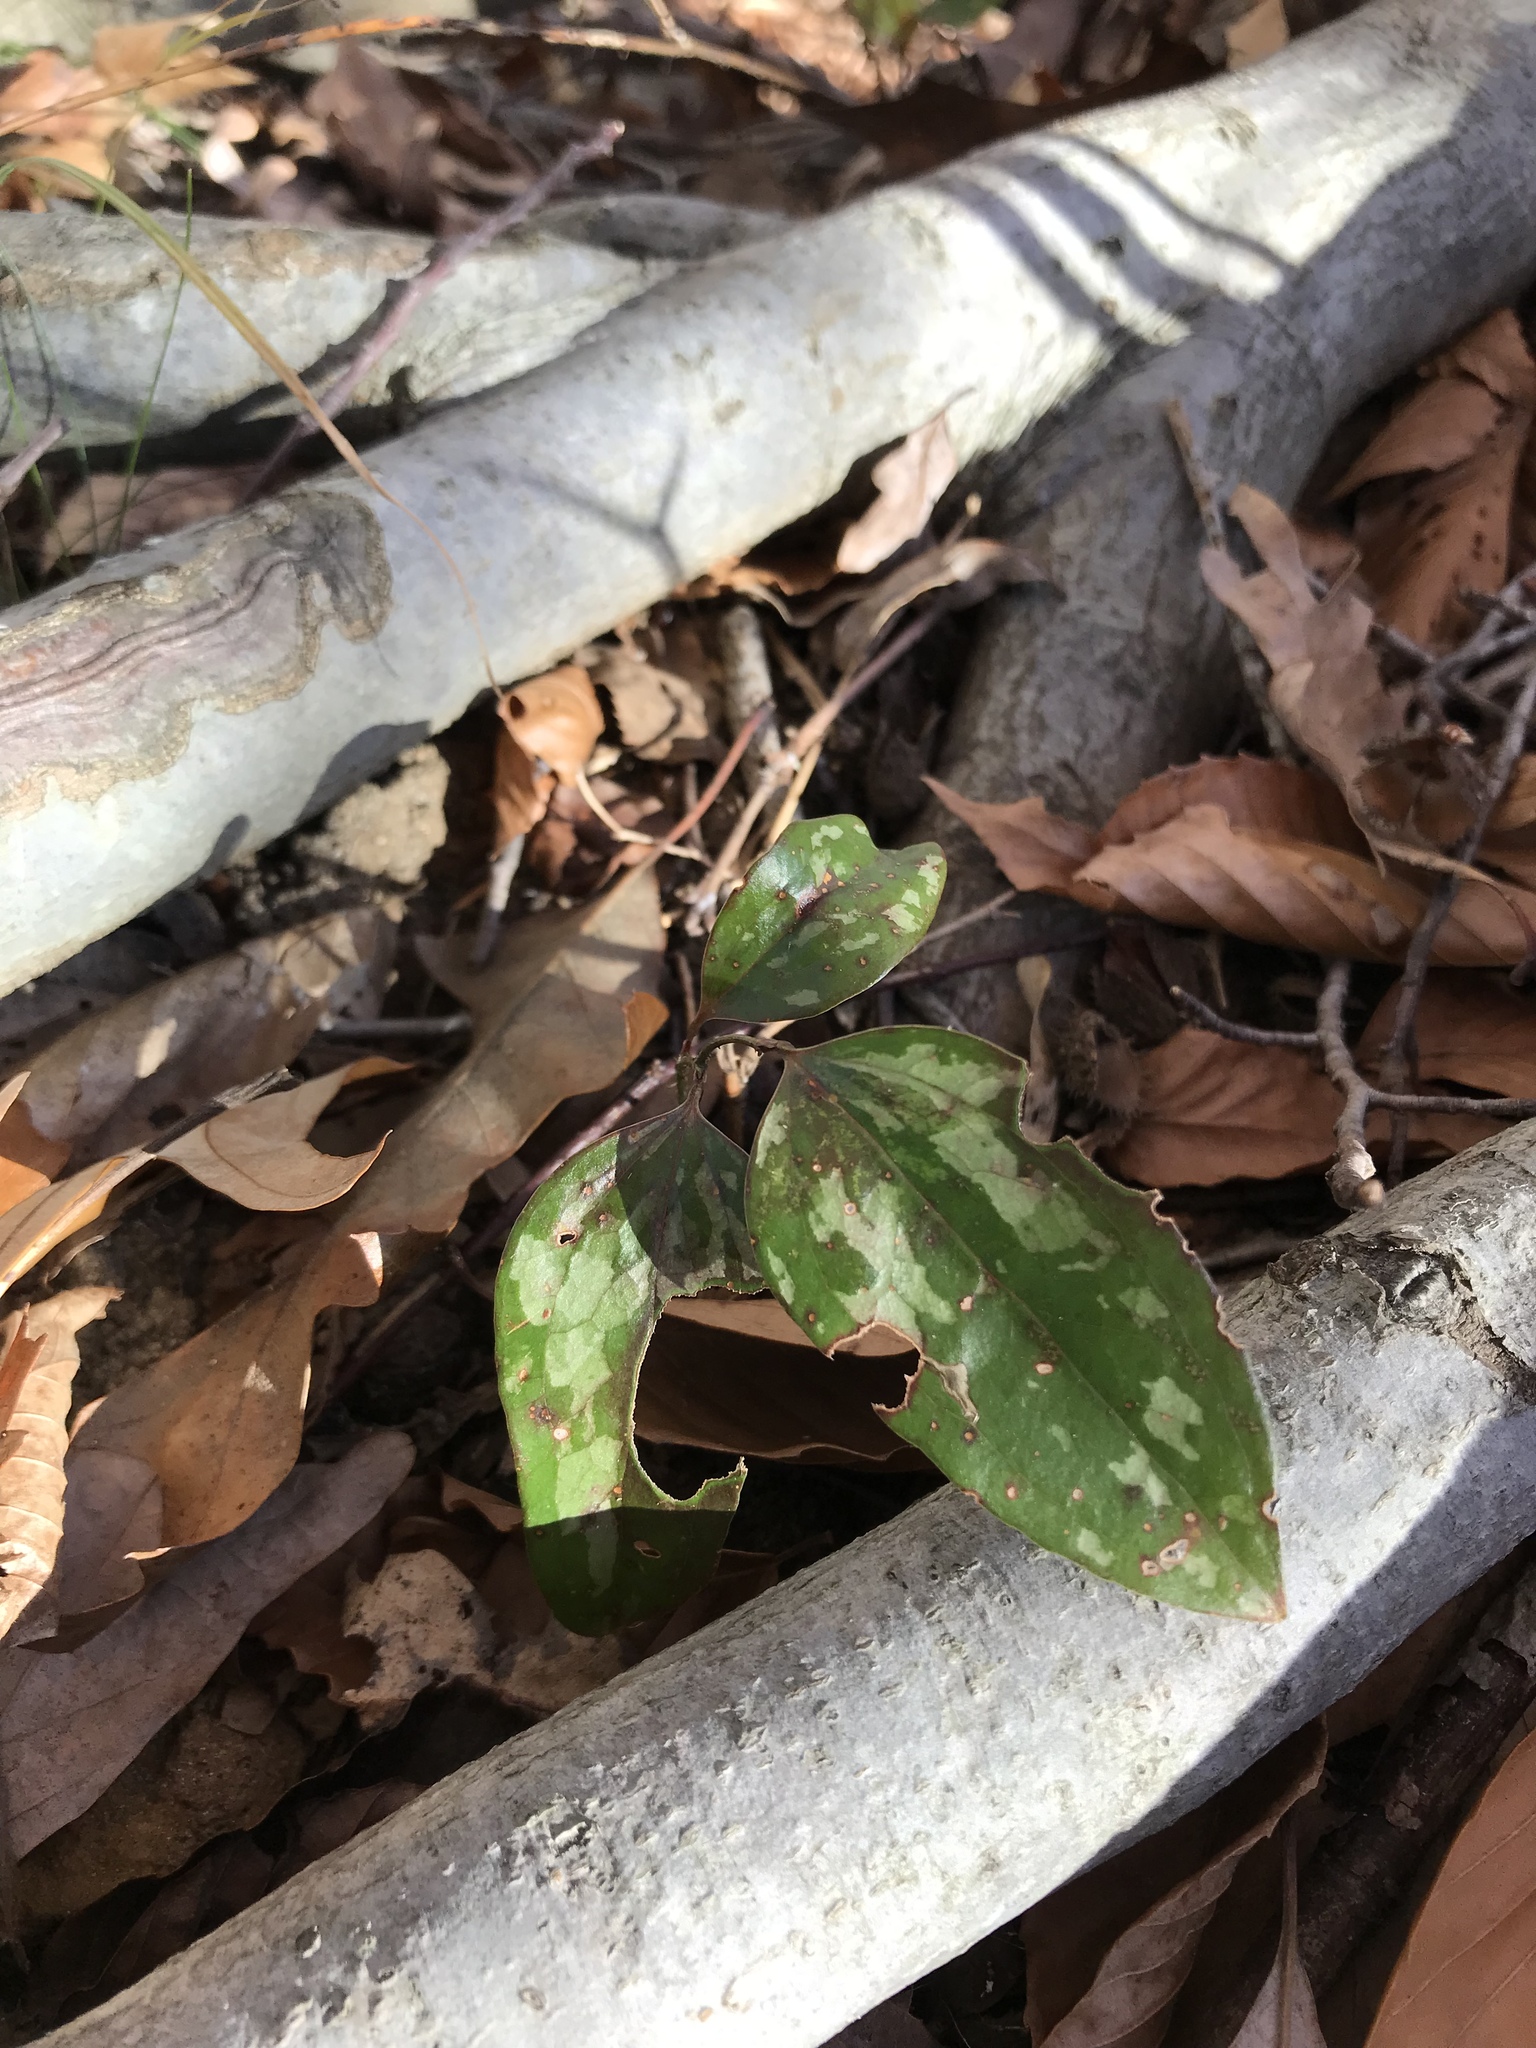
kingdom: Plantae
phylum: Tracheophyta
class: Liliopsida
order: Liliales
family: Smilacaceae
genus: Smilax
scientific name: Smilax glauca
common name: Cat greenbrier
